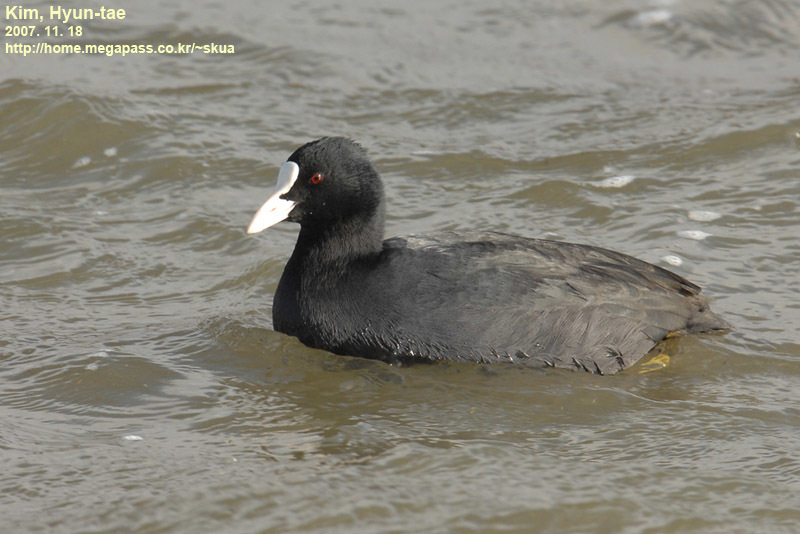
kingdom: Animalia
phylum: Chordata
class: Aves
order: Gruiformes
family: Rallidae
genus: Fulica
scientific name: Fulica atra
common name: Eurasian coot
